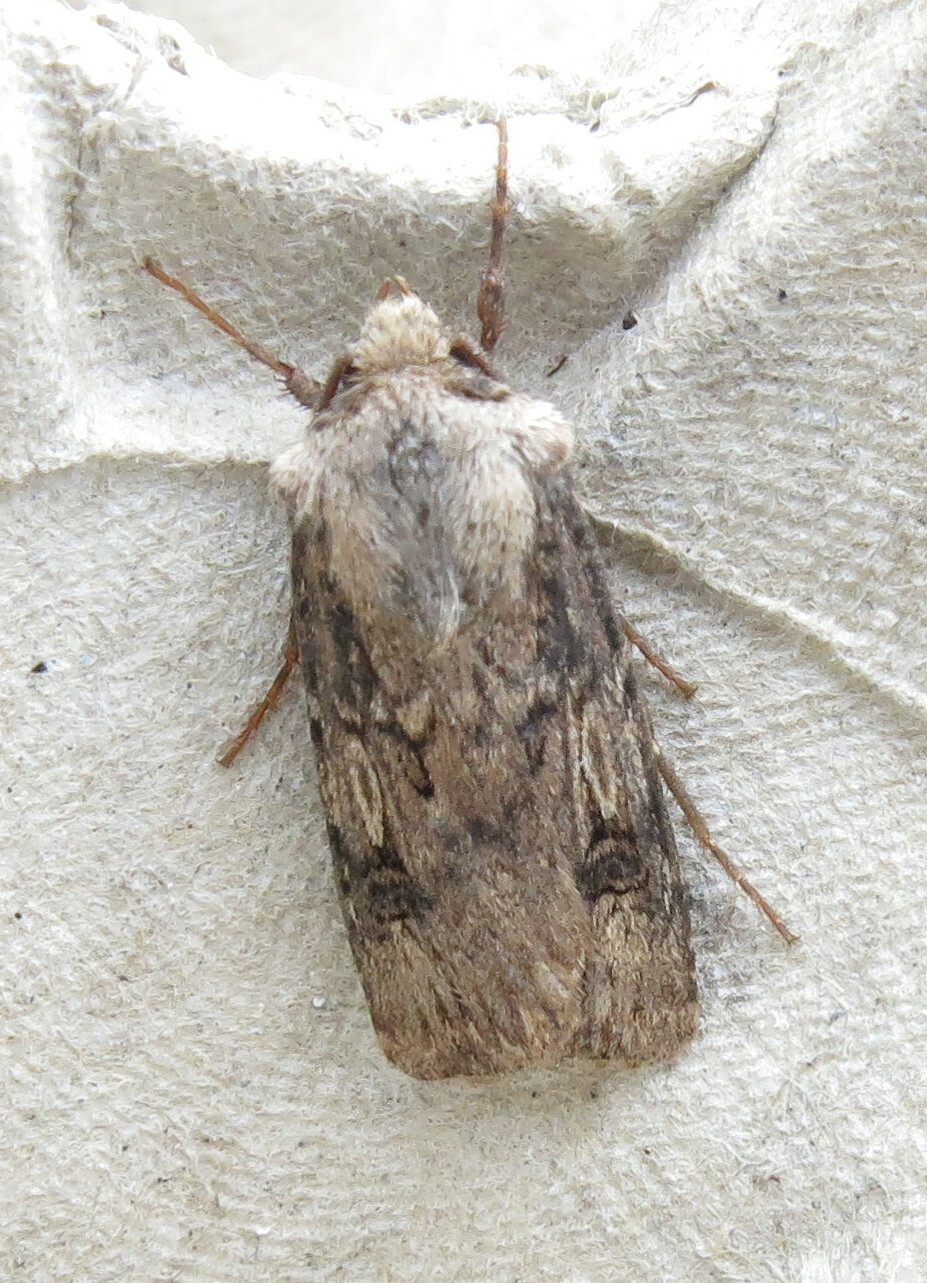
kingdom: Animalia
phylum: Arthropoda
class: Insecta
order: Lepidoptera
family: Noctuidae
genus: Agrotis
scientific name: Agrotis puta
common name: Shuttle-shaped dart
